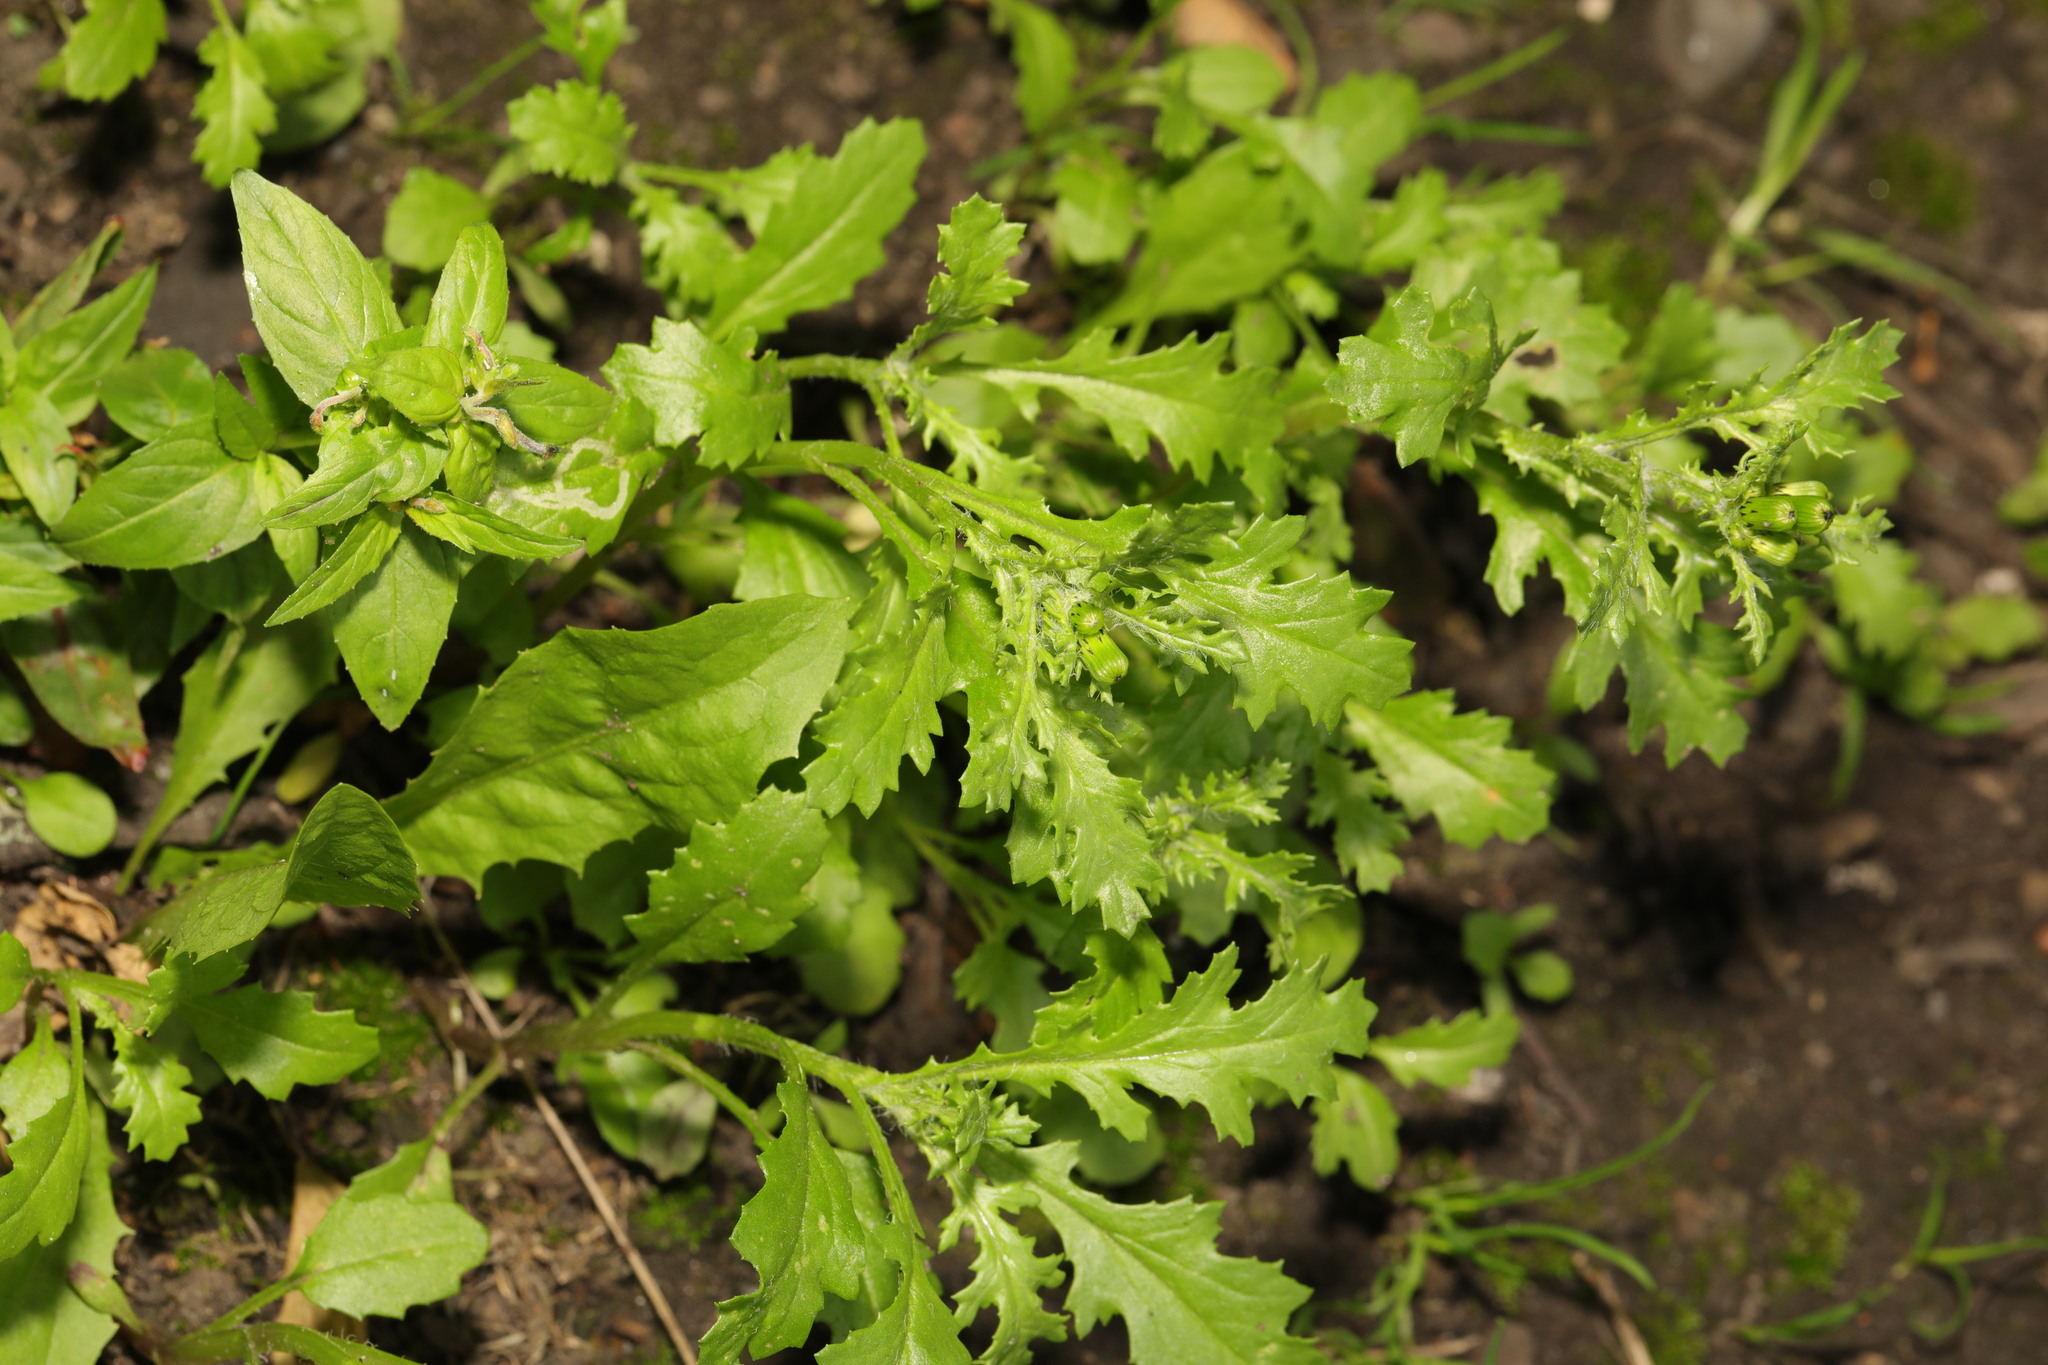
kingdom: Plantae
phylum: Tracheophyta
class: Magnoliopsida
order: Asterales
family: Asteraceae
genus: Senecio
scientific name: Senecio vulgaris
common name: Old-man-in-the-spring
